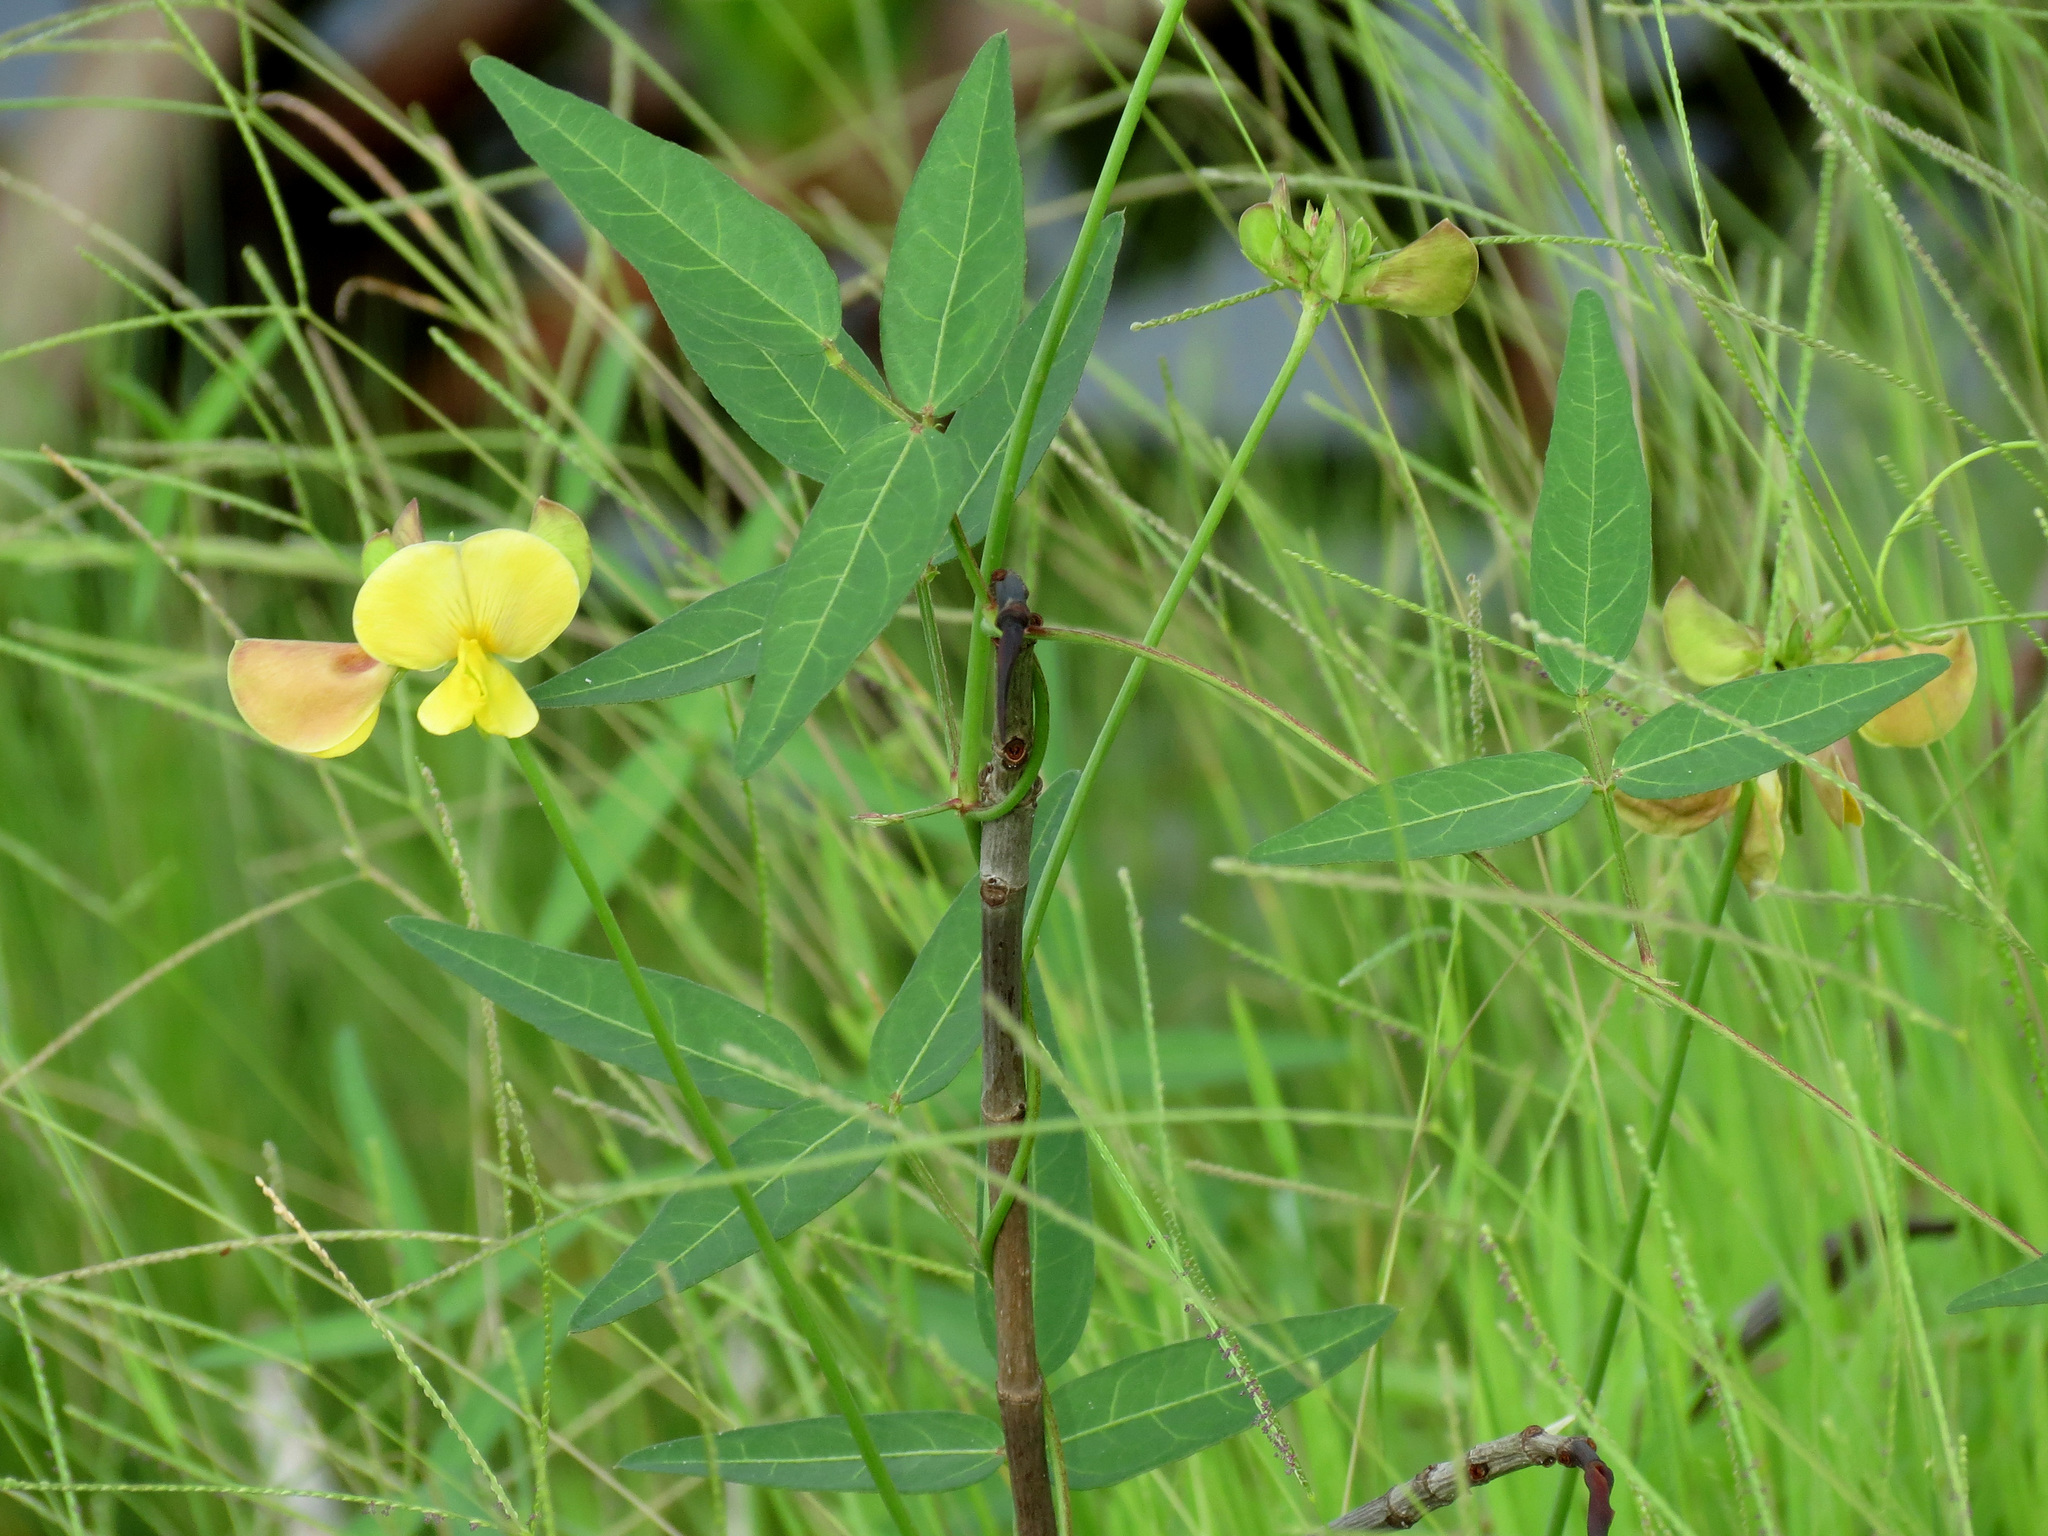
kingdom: Plantae
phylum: Tracheophyta
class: Magnoliopsida
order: Fabales
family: Fabaceae
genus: Vigna
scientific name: Vigna luteola
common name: Hairypod cowpea
